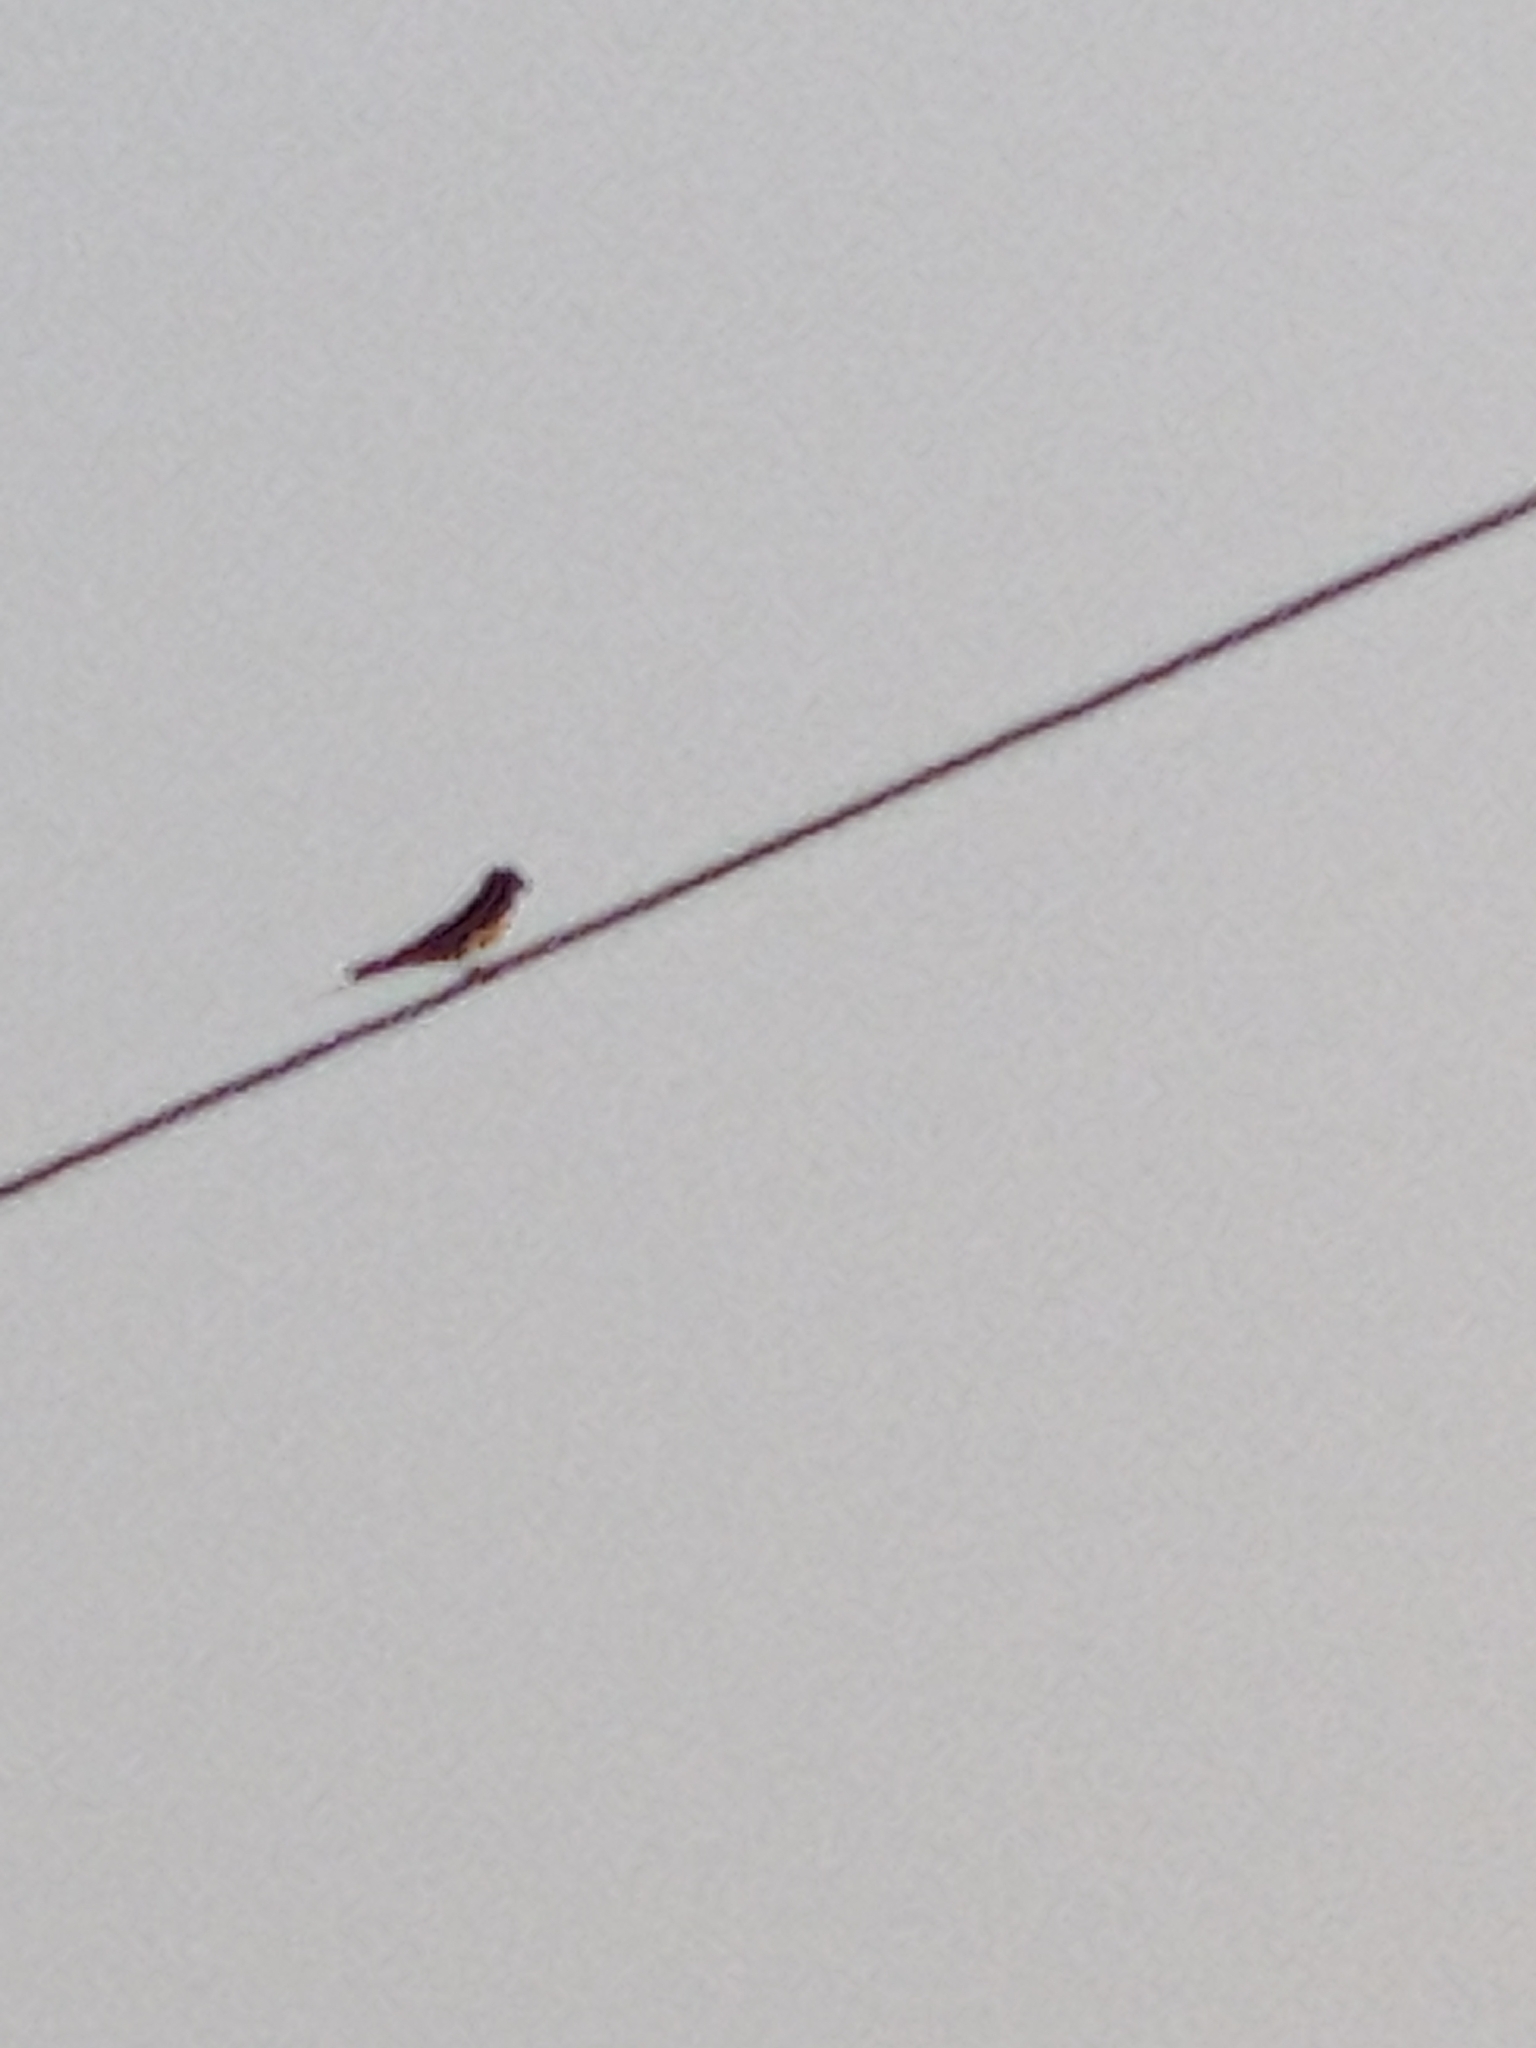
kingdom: Animalia
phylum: Chordata
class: Aves
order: Passeriformes
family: Hirundinidae
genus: Hirundo
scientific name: Hirundo rustica
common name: Barn swallow
